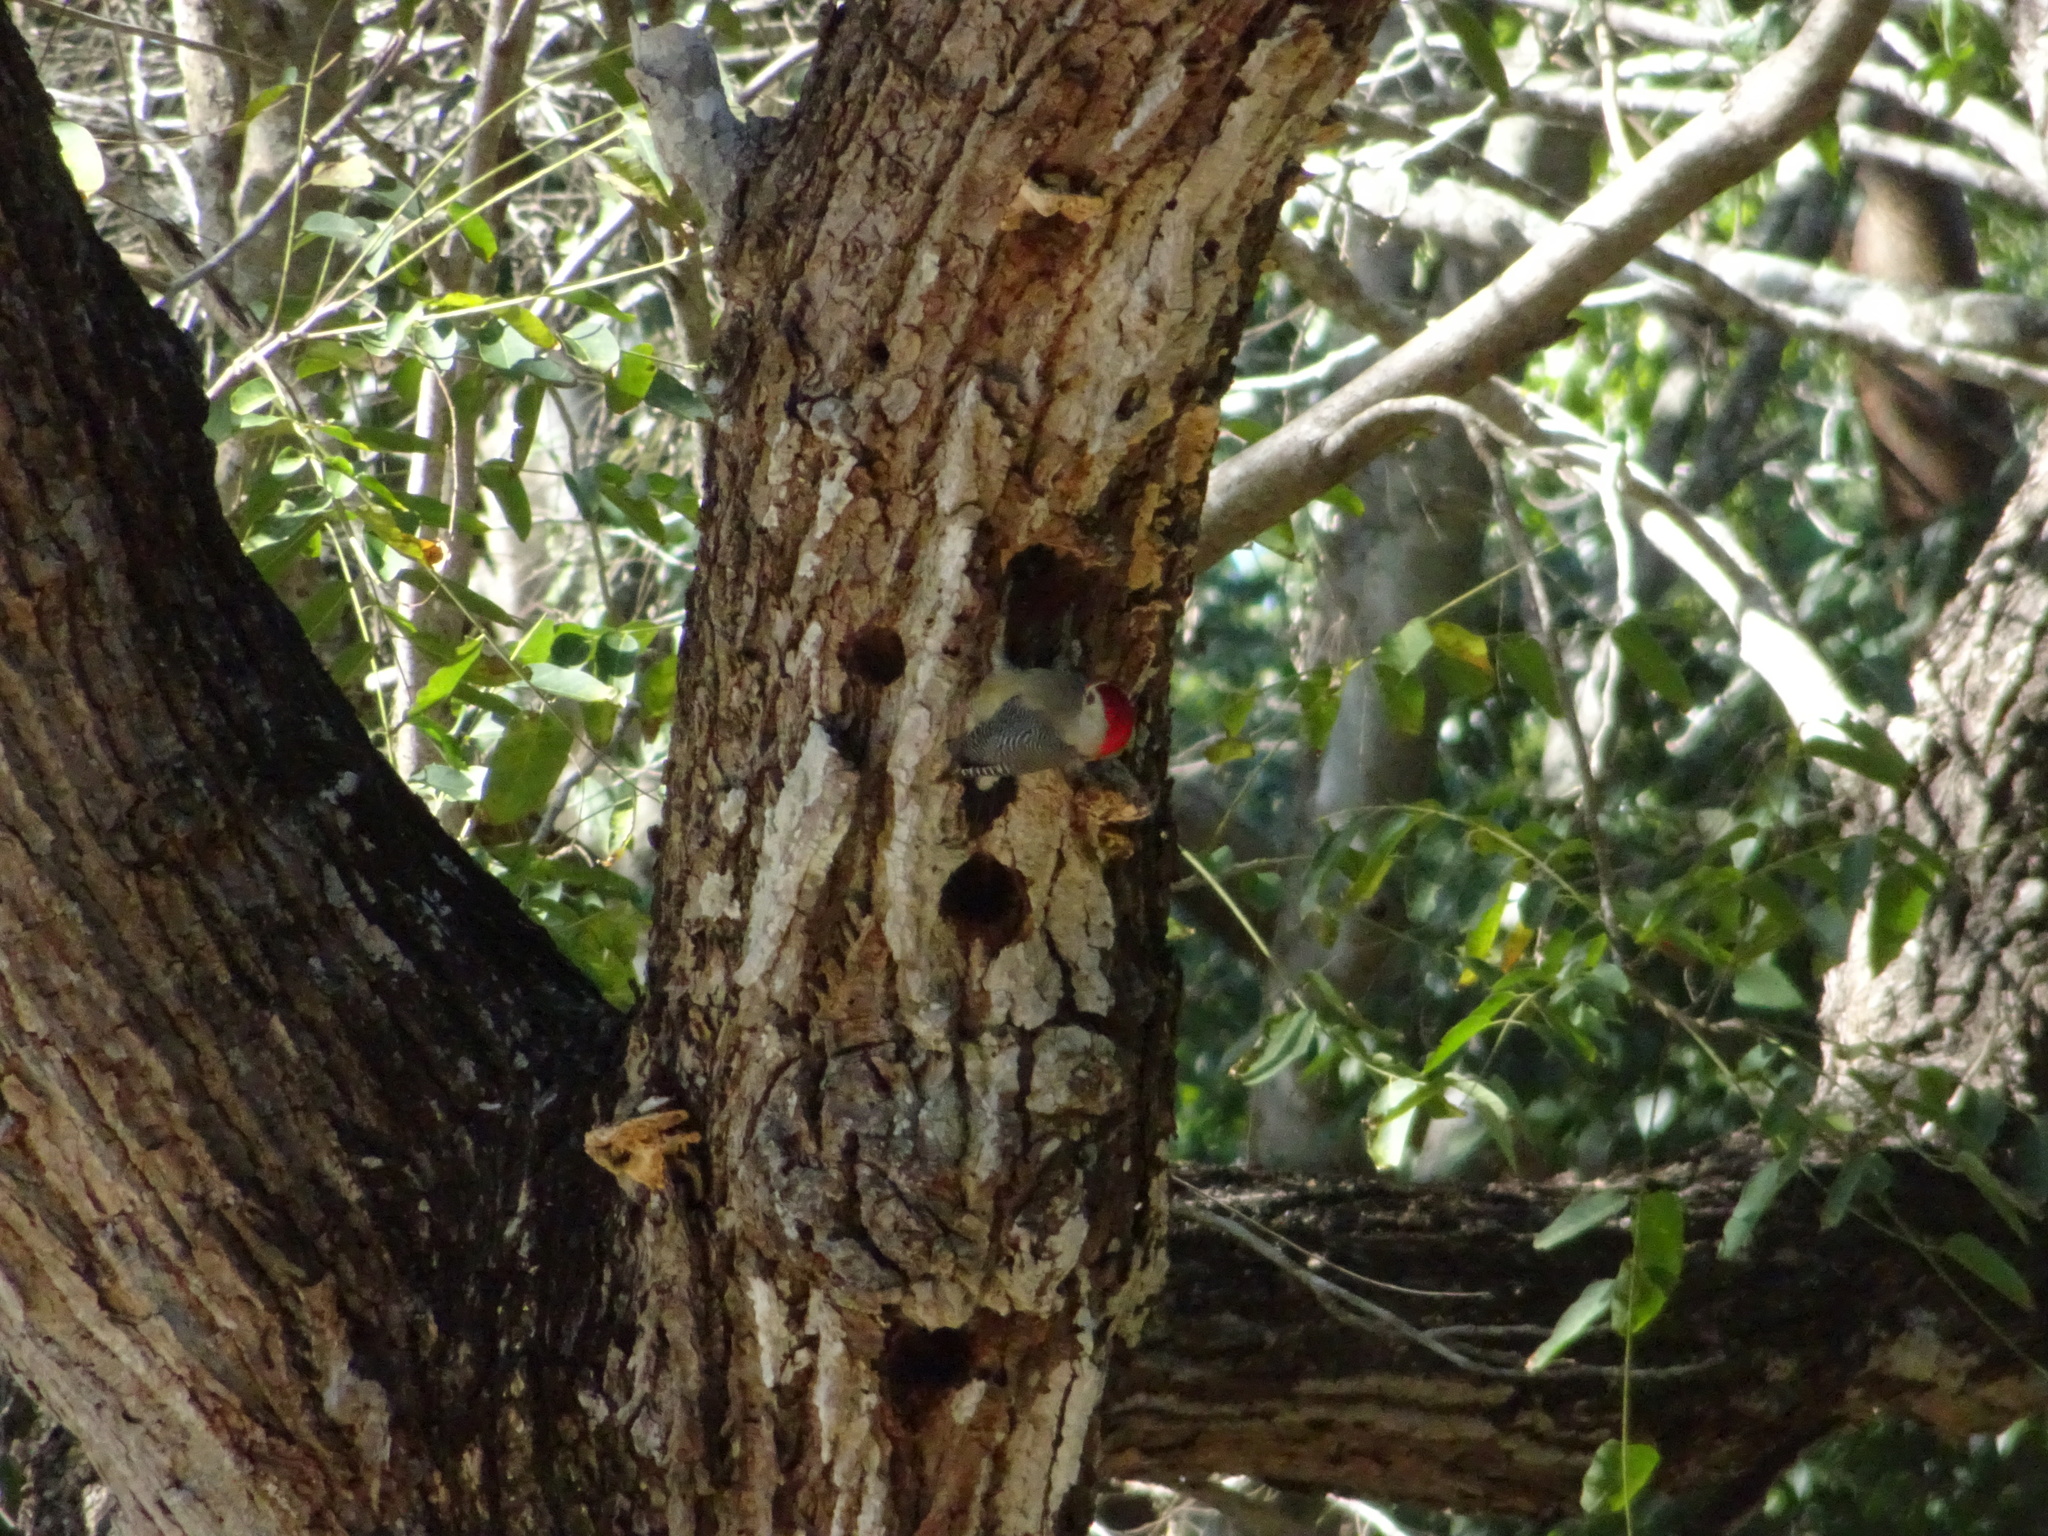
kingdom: Animalia
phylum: Chordata
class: Aves
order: Piciformes
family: Picidae
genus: Melanerpes
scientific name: Melanerpes santacruzi
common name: Velasquez's woodpecker
